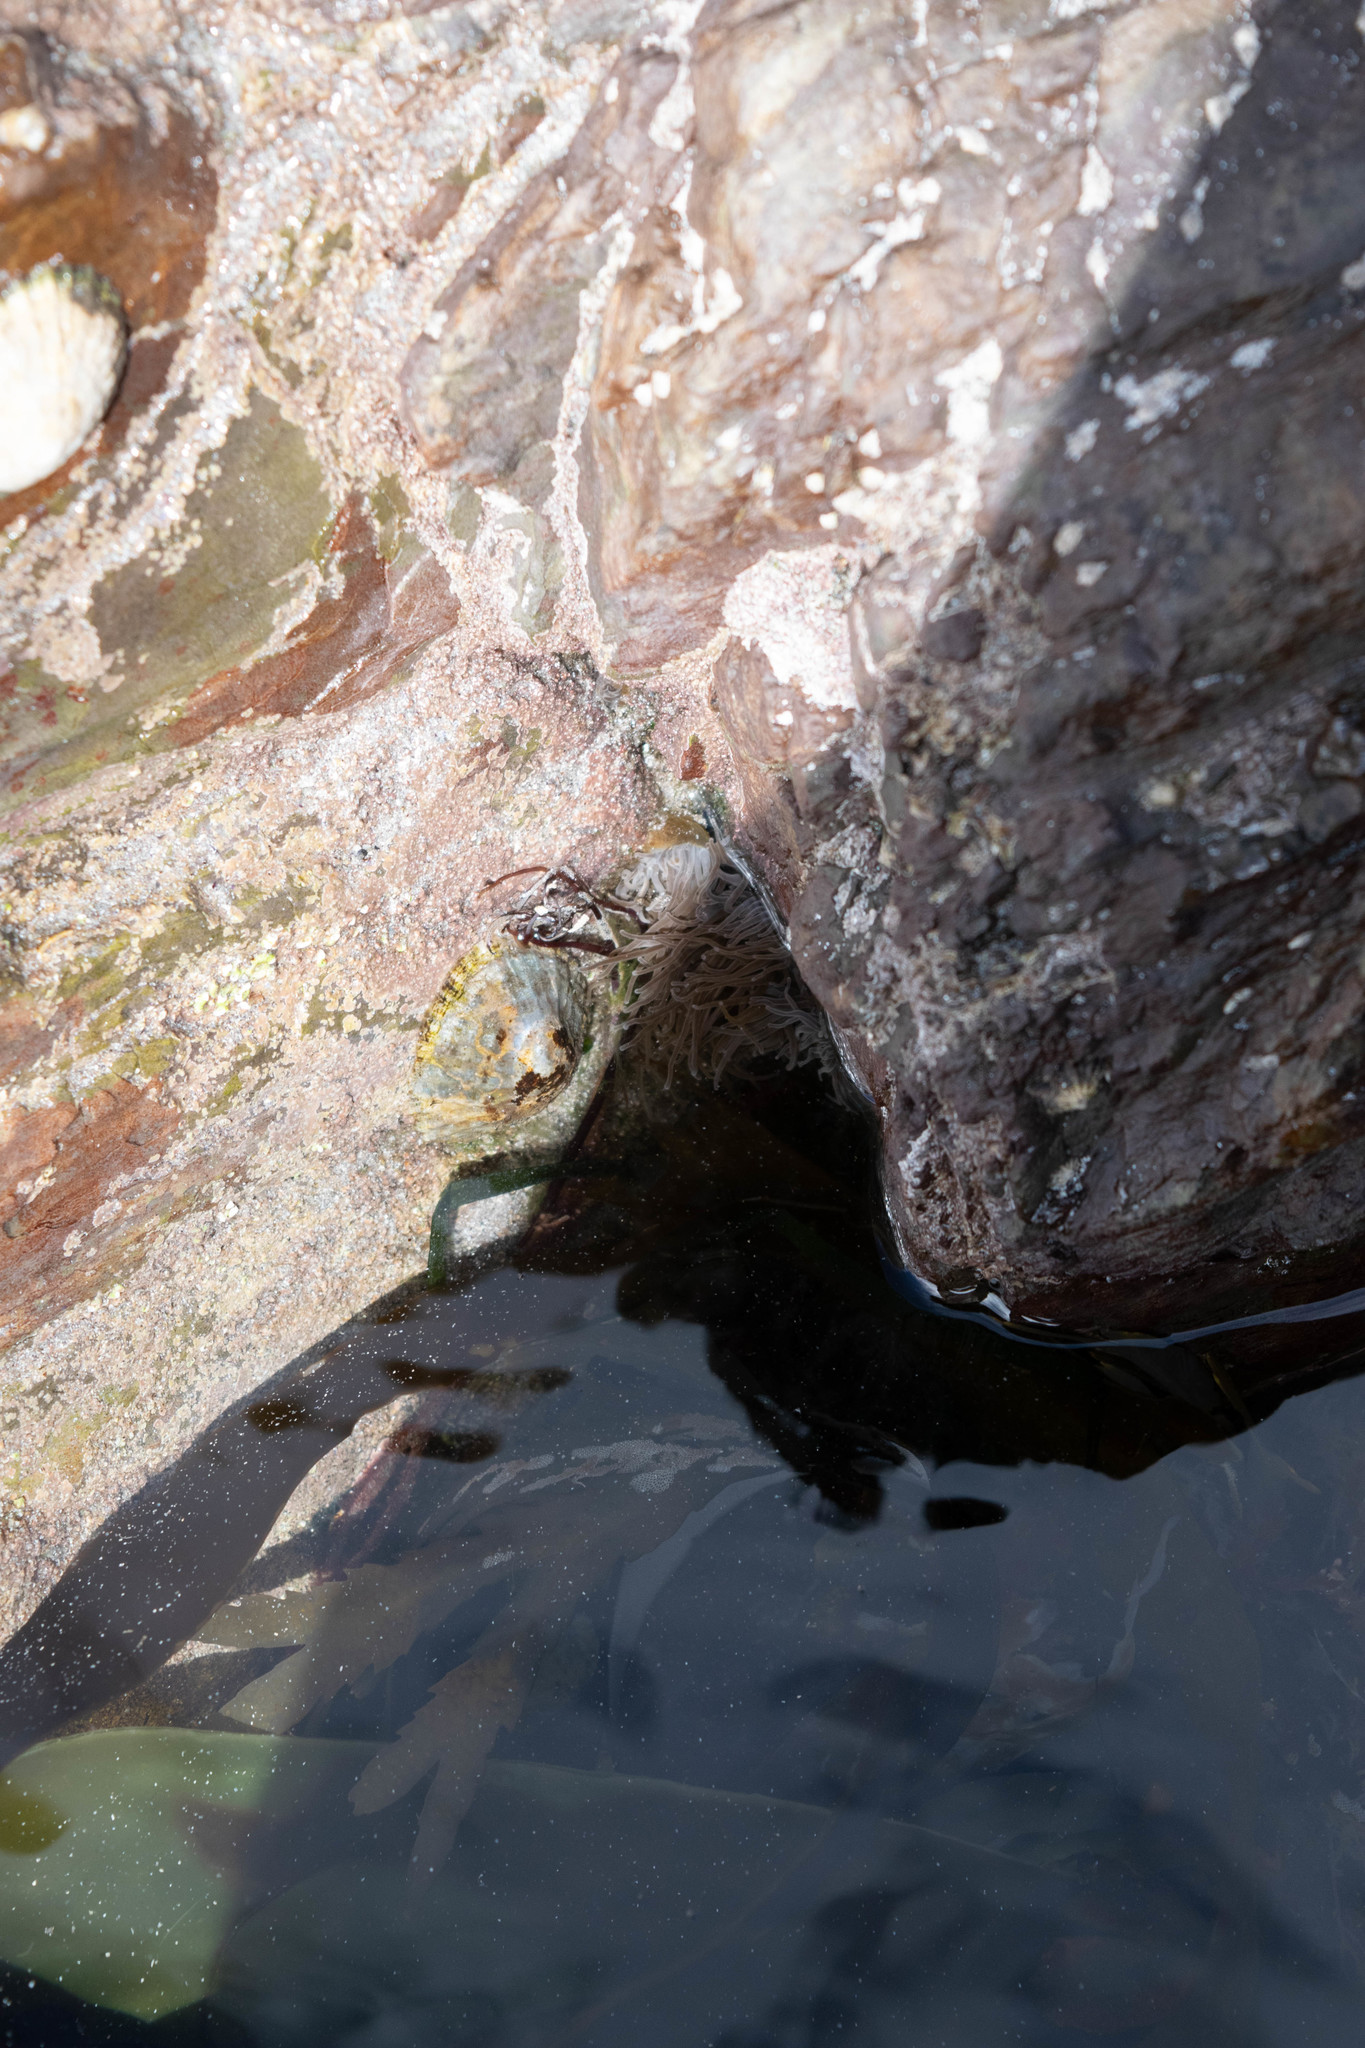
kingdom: Animalia
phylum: Cnidaria
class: Anthozoa
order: Actiniaria
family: Actiniidae
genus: Anemonia
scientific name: Anemonia viridis
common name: Snakelocks anemone
